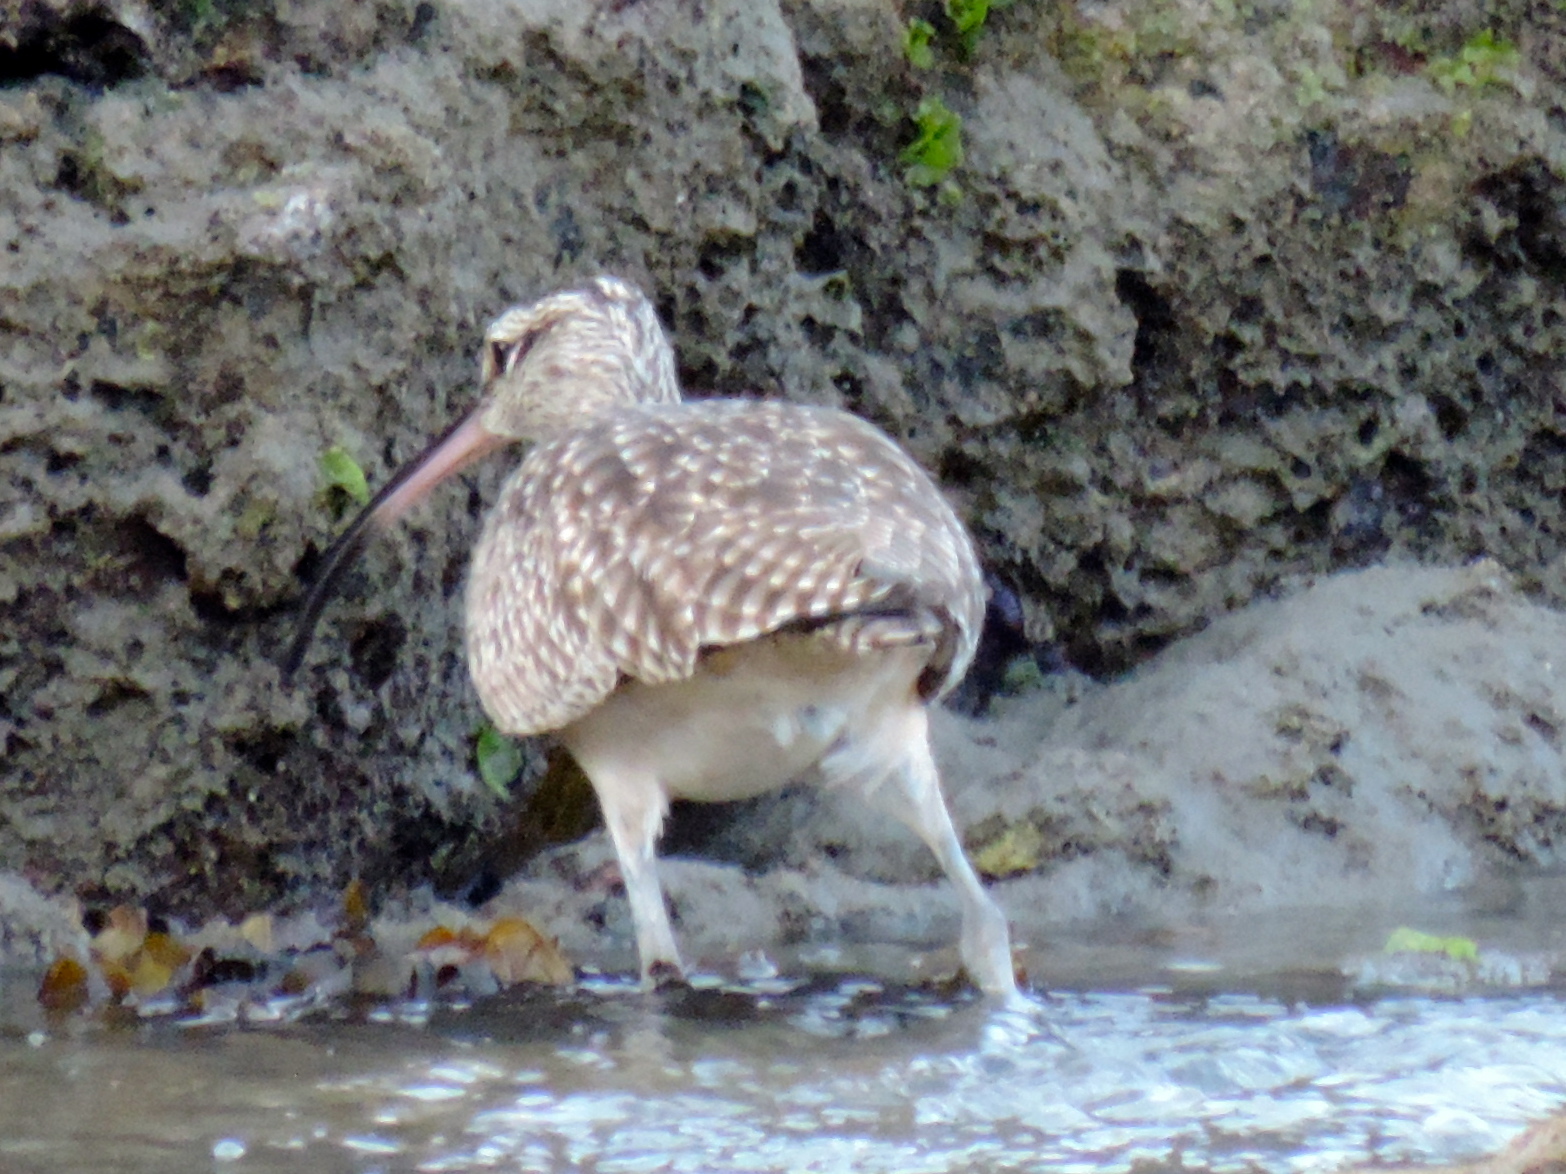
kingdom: Animalia
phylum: Chordata
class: Aves
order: Charadriiformes
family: Scolopacidae
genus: Numenius
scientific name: Numenius phaeopus
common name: Whimbrel
